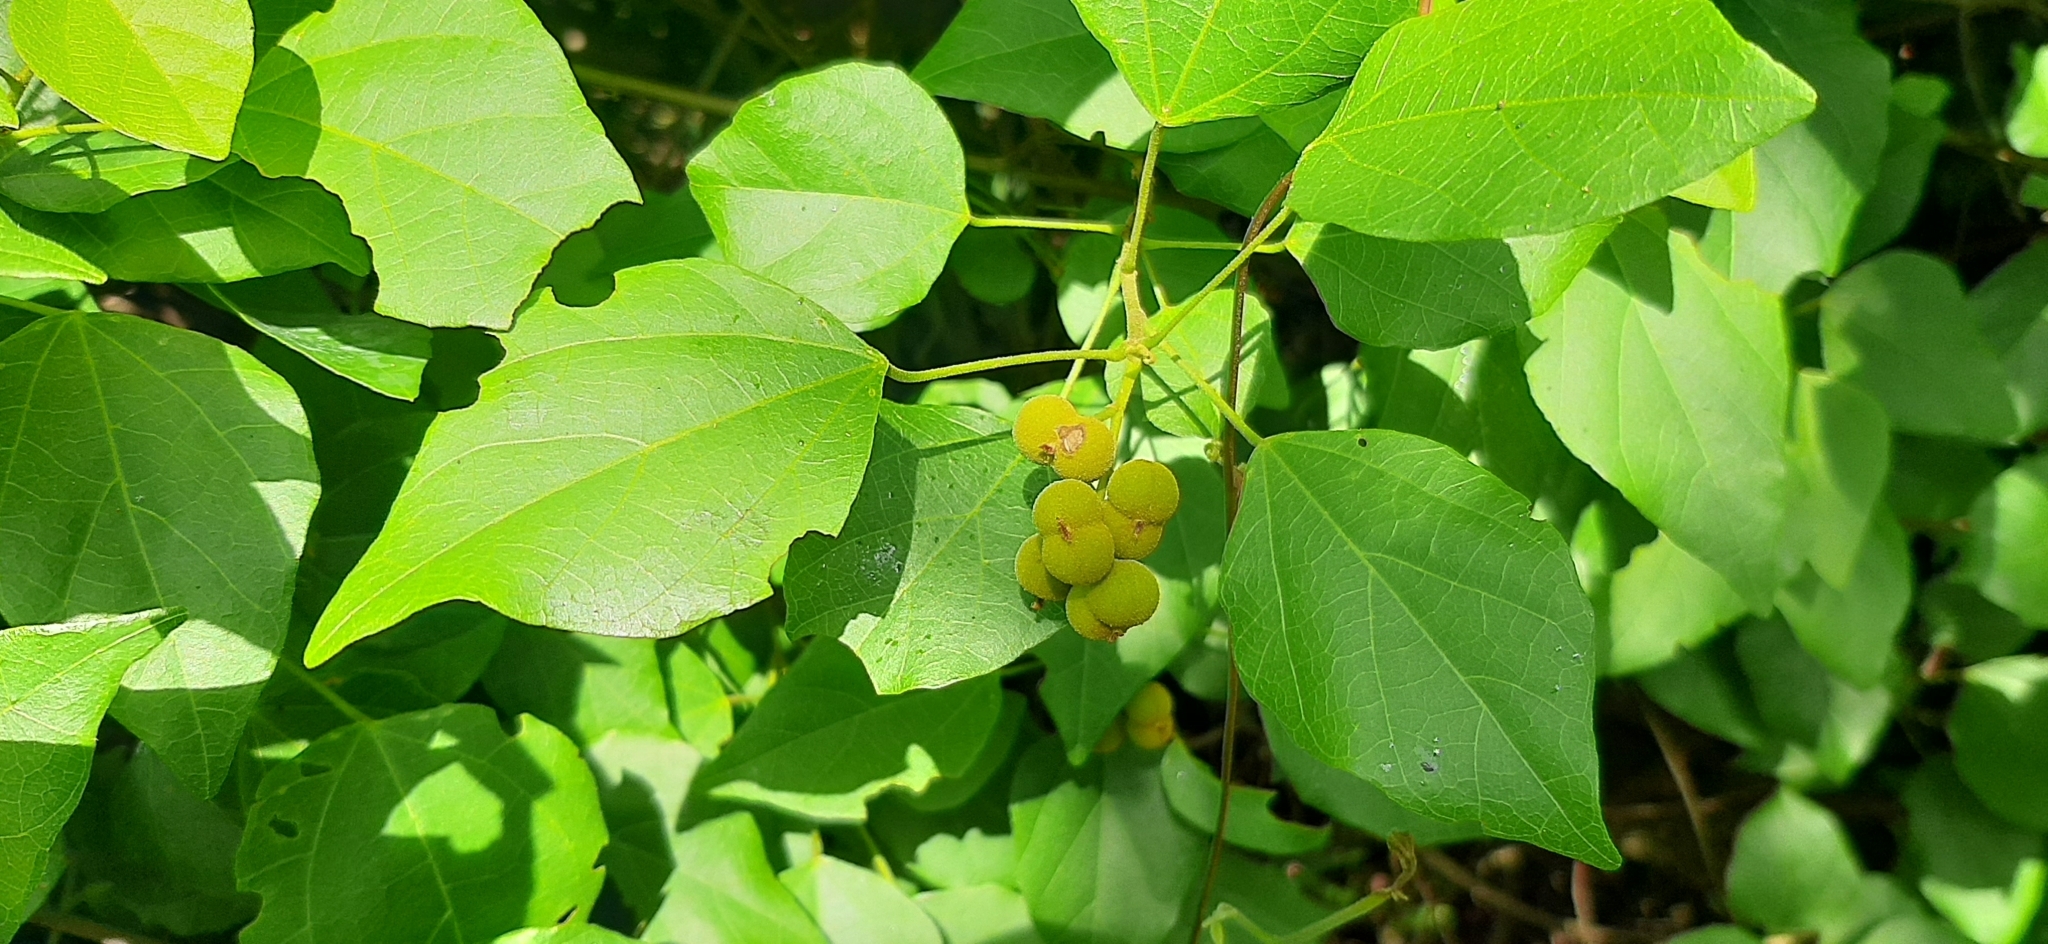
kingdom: Plantae
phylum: Tracheophyta
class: Magnoliopsida
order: Malpighiales
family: Euphorbiaceae
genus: Mallotus
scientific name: Mallotus repandus
